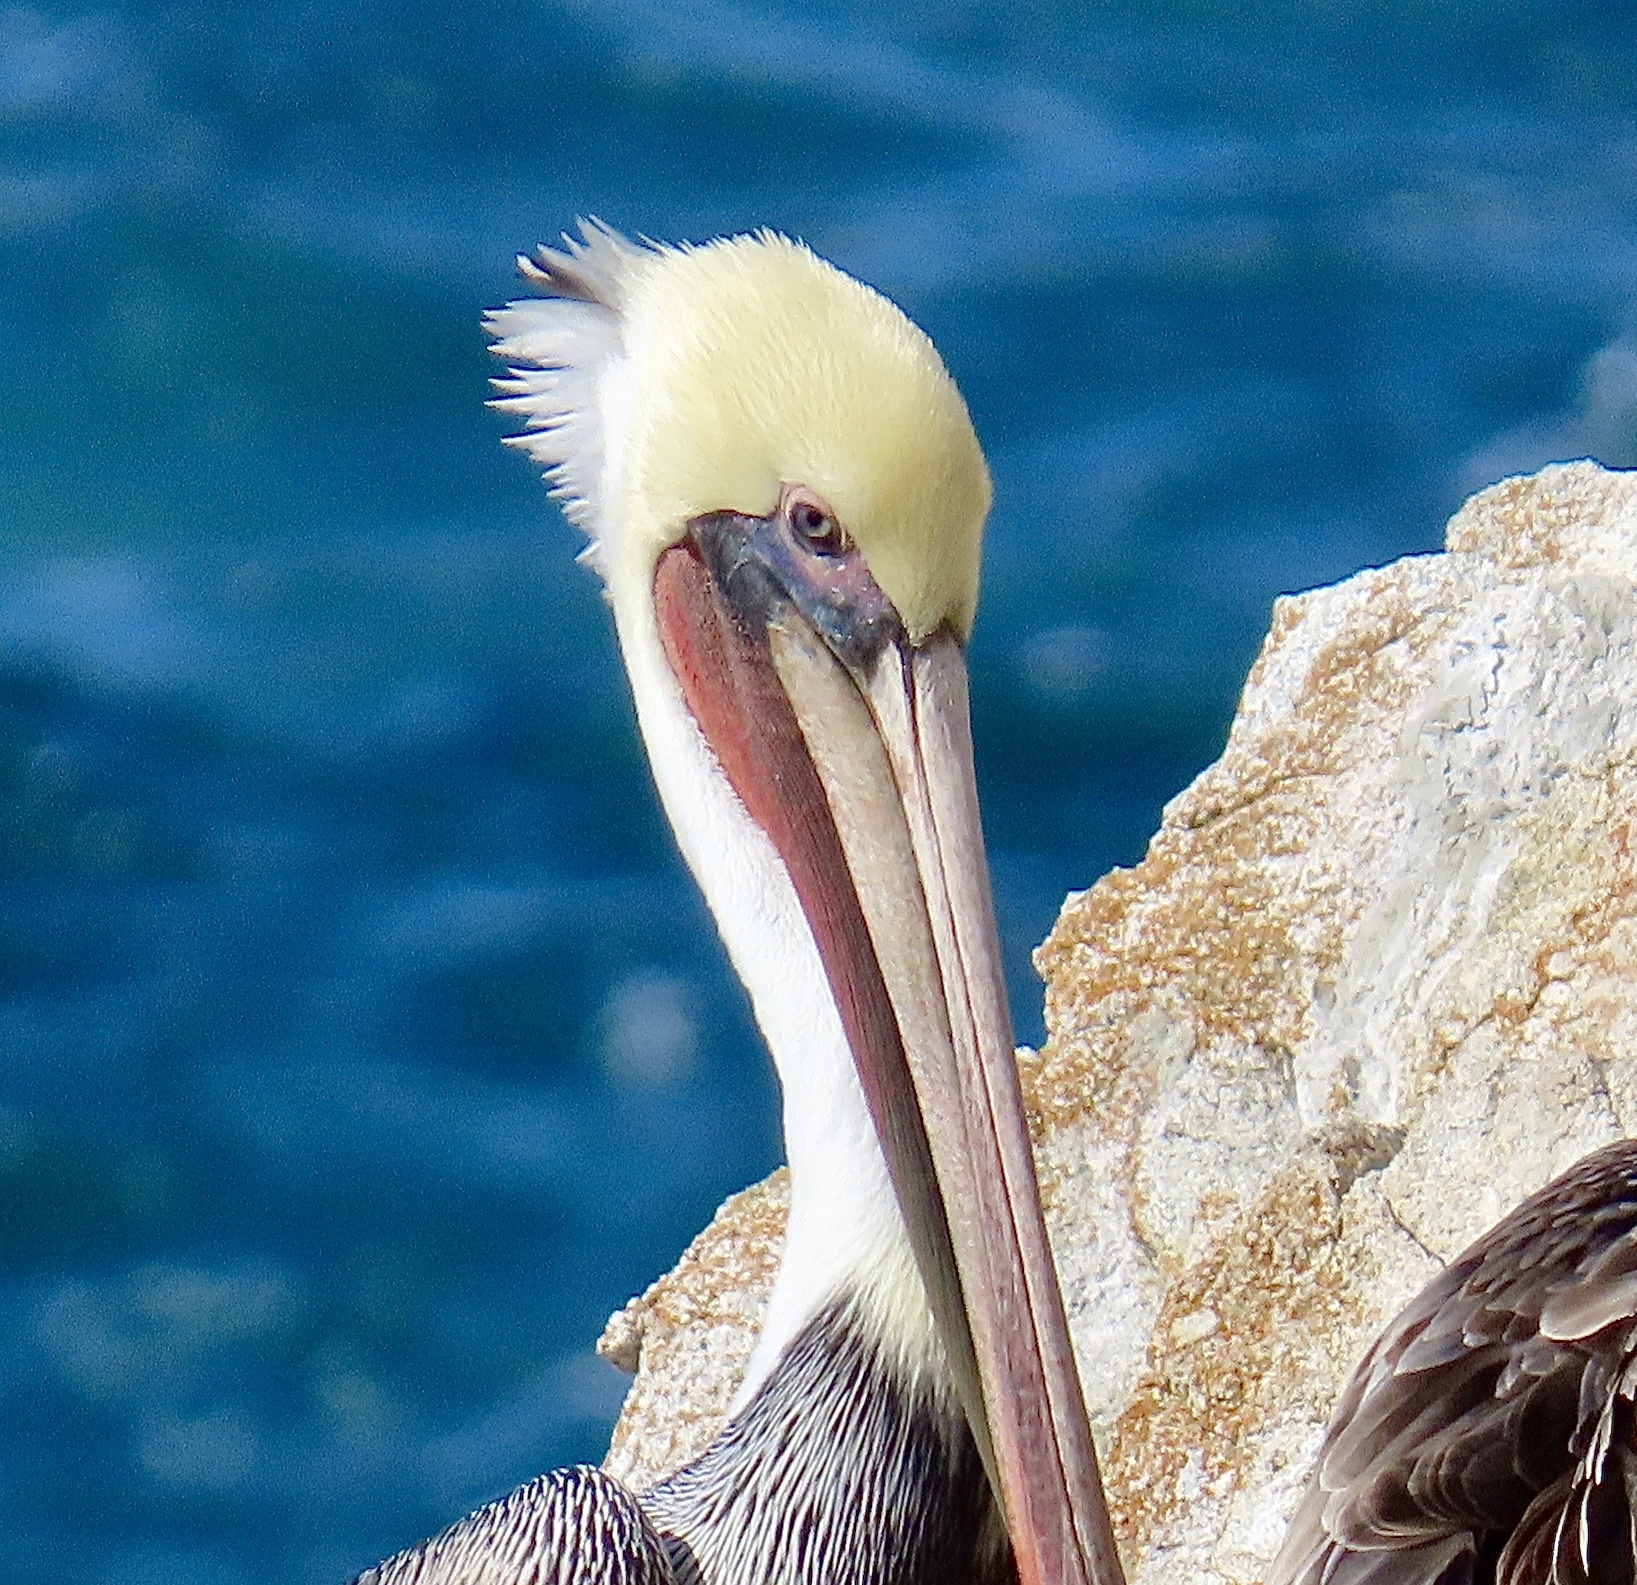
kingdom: Animalia
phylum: Chordata
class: Aves
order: Pelecaniformes
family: Pelecanidae
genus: Pelecanus
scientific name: Pelecanus occidentalis
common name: Brown pelican
